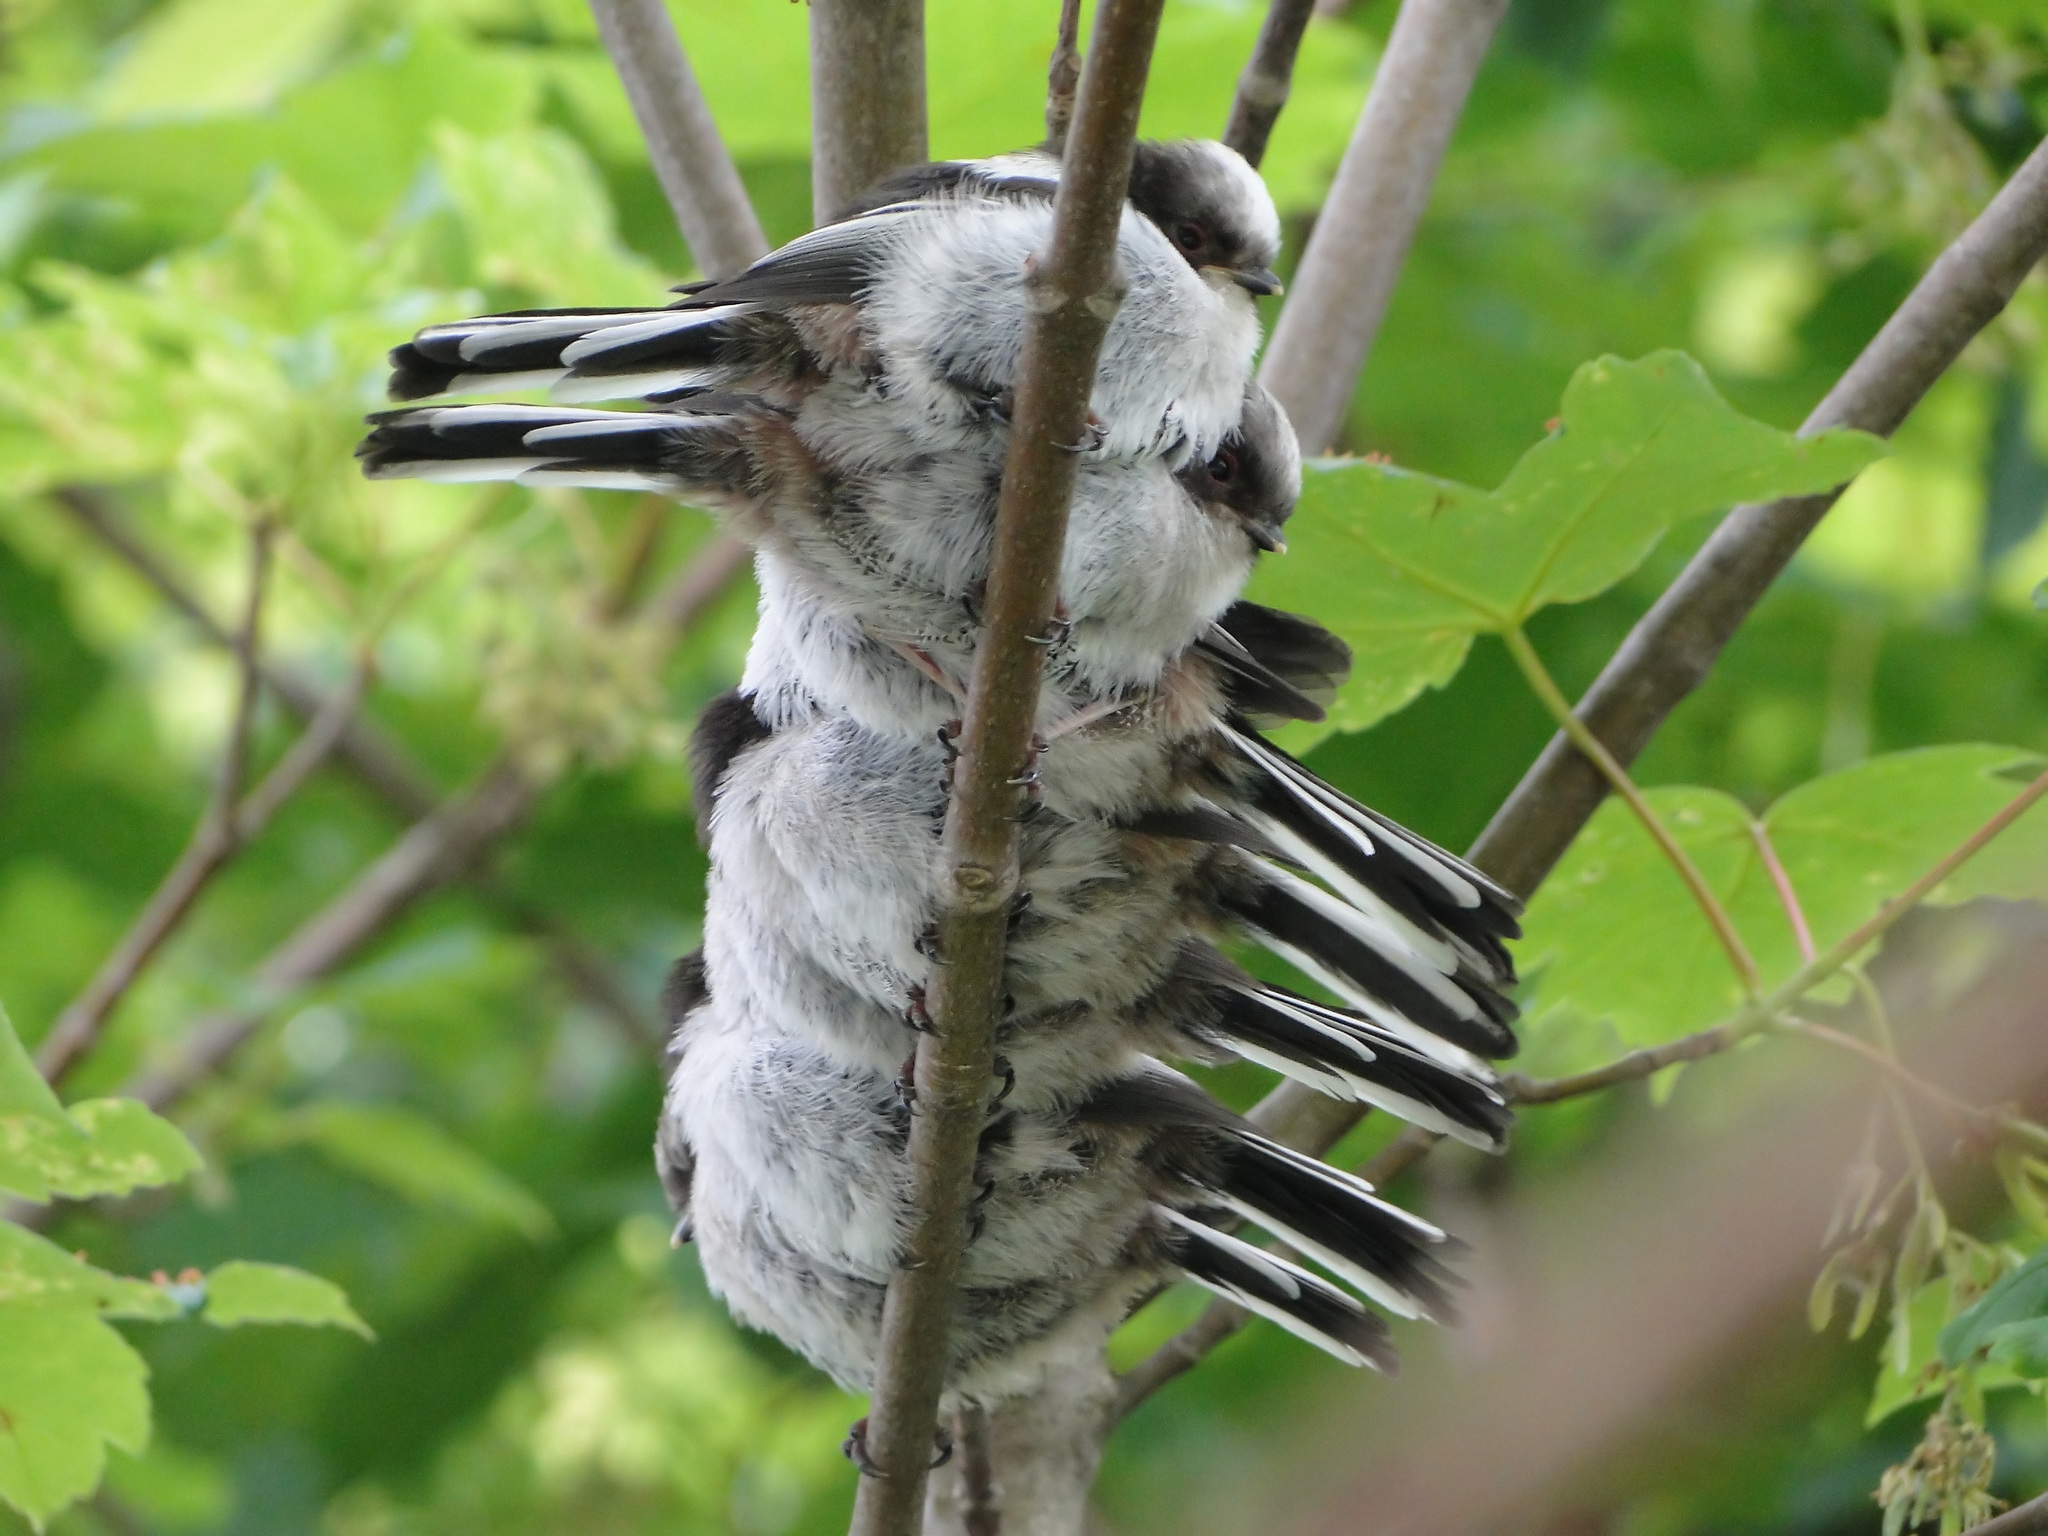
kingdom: Animalia
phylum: Chordata
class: Aves
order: Passeriformes
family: Aegithalidae
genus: Aegithalos
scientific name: Aegithalos caudatus
